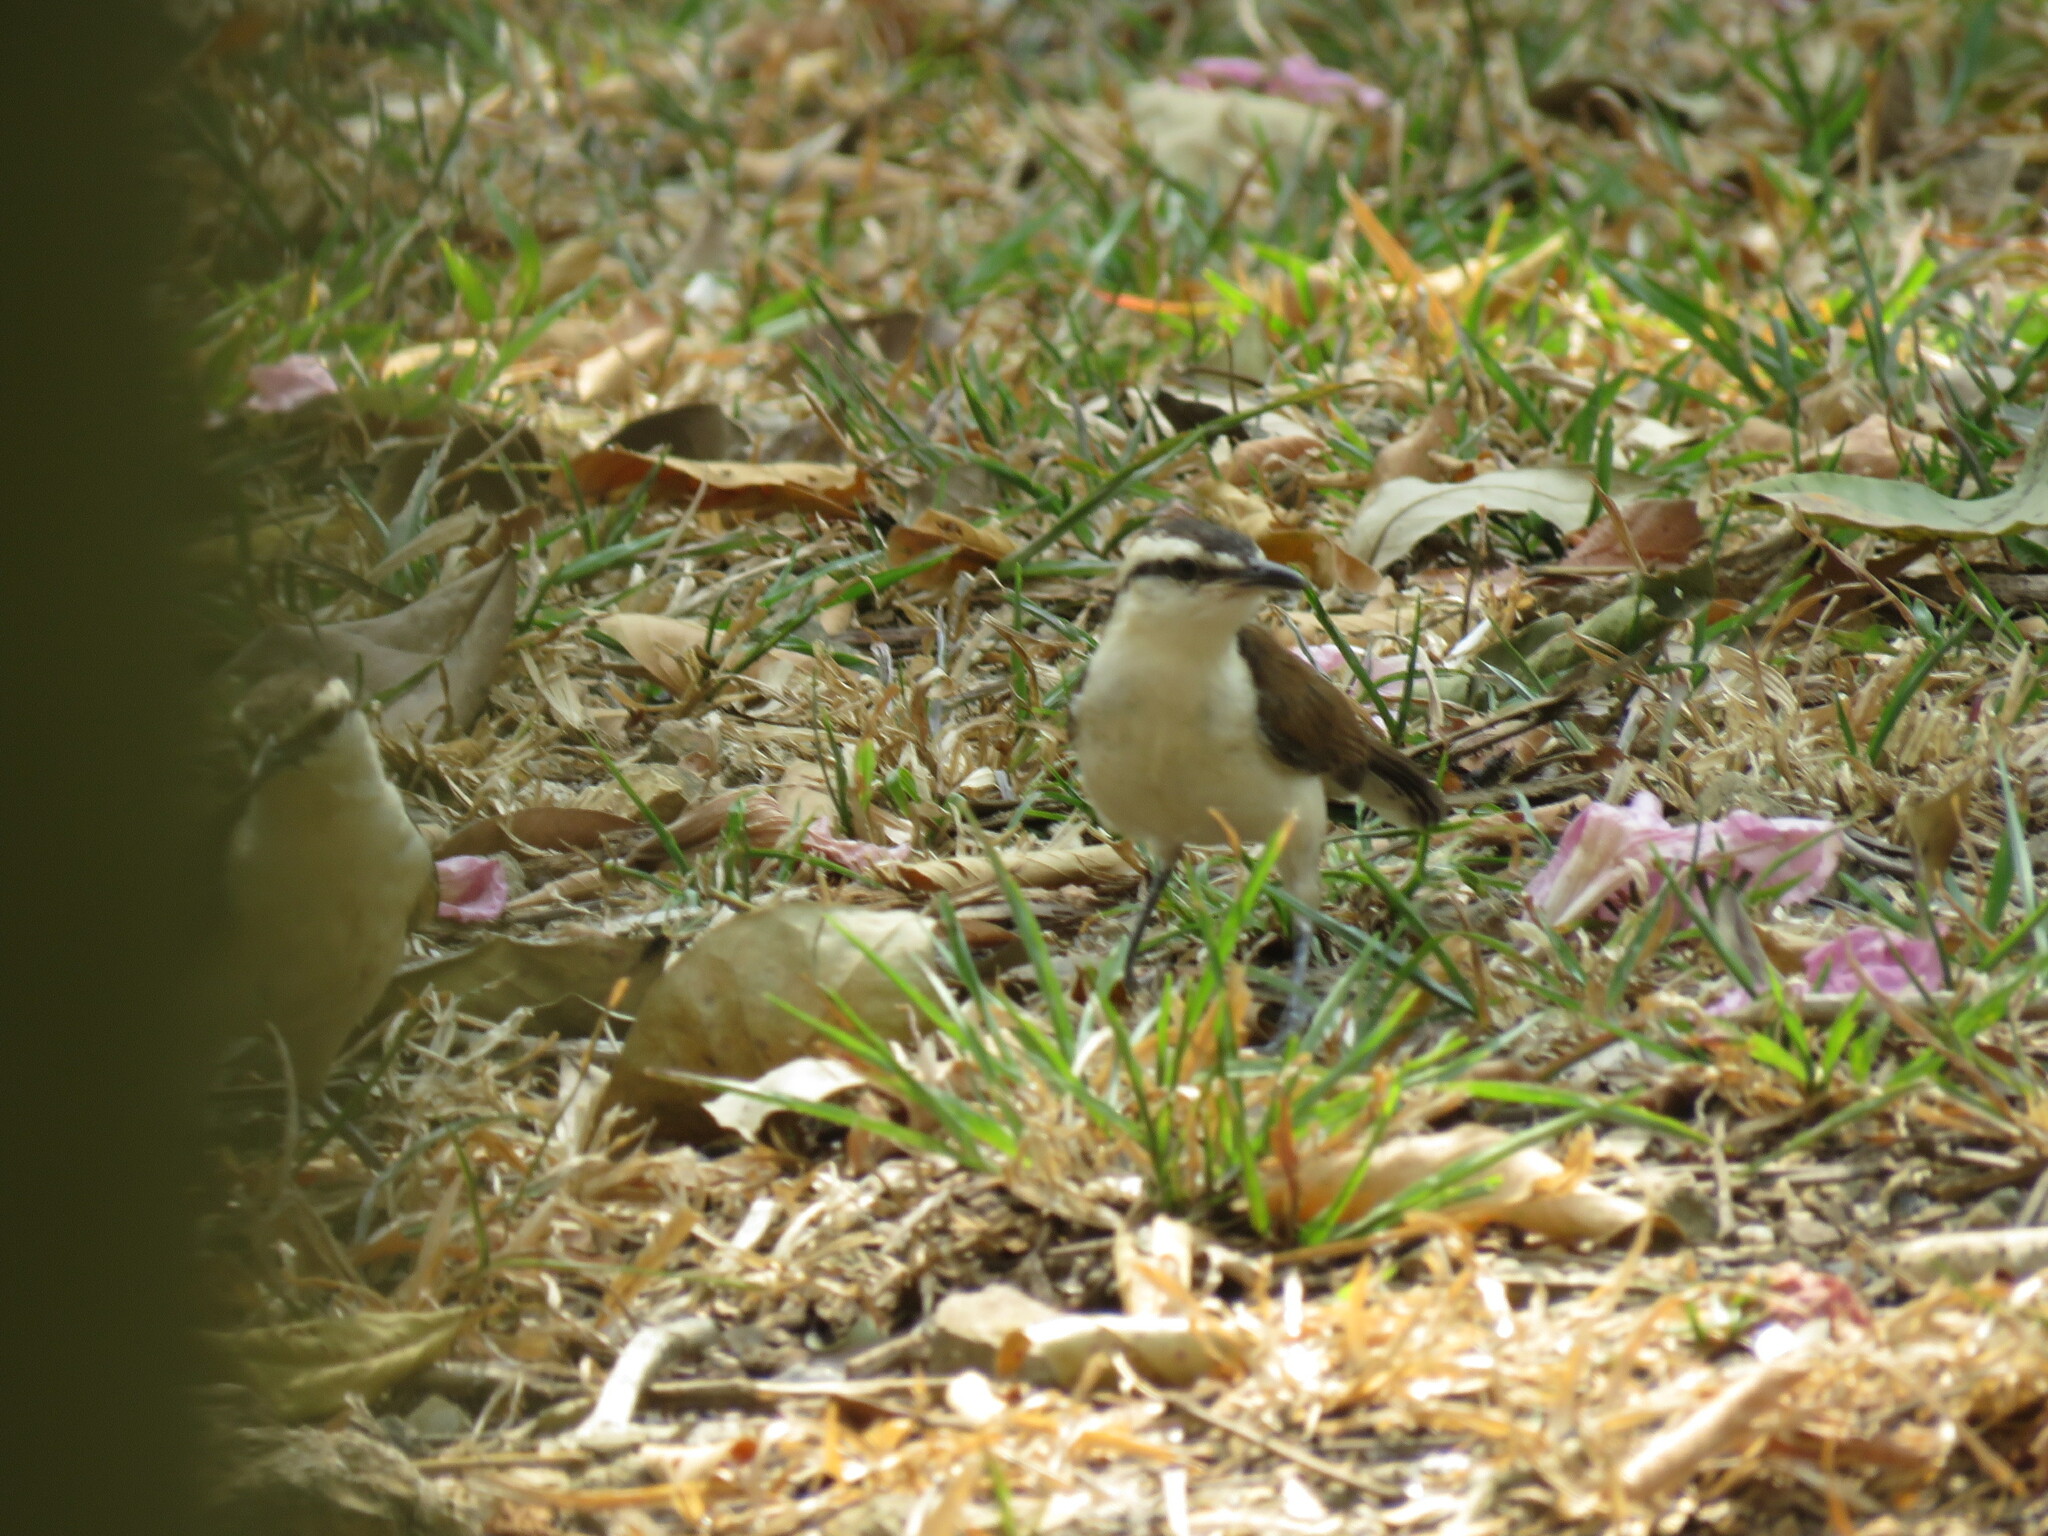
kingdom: Animalia
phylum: Chordata
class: Aves
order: Passeriformes
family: Troglodytidae
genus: Campylorhynchus
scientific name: Campylorhynchus griseus
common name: Bicolored wren
